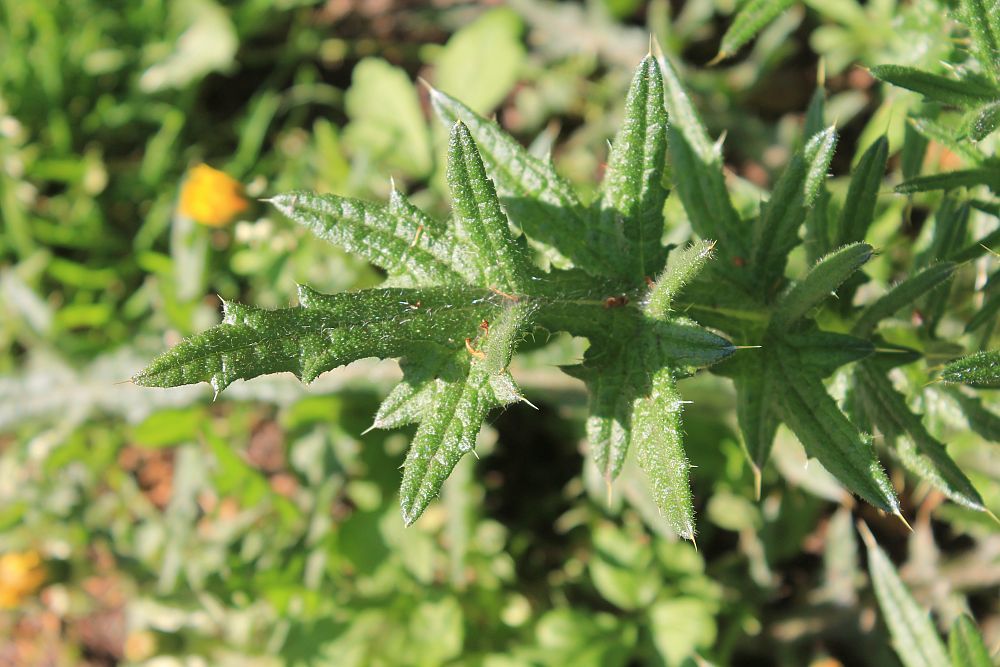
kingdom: Plantae
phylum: Tracheophyta
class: Magnoliopsida
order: Asterales
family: Asteraceae
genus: Cirsium
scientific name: Cirsium vulgare
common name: Bull thistle
